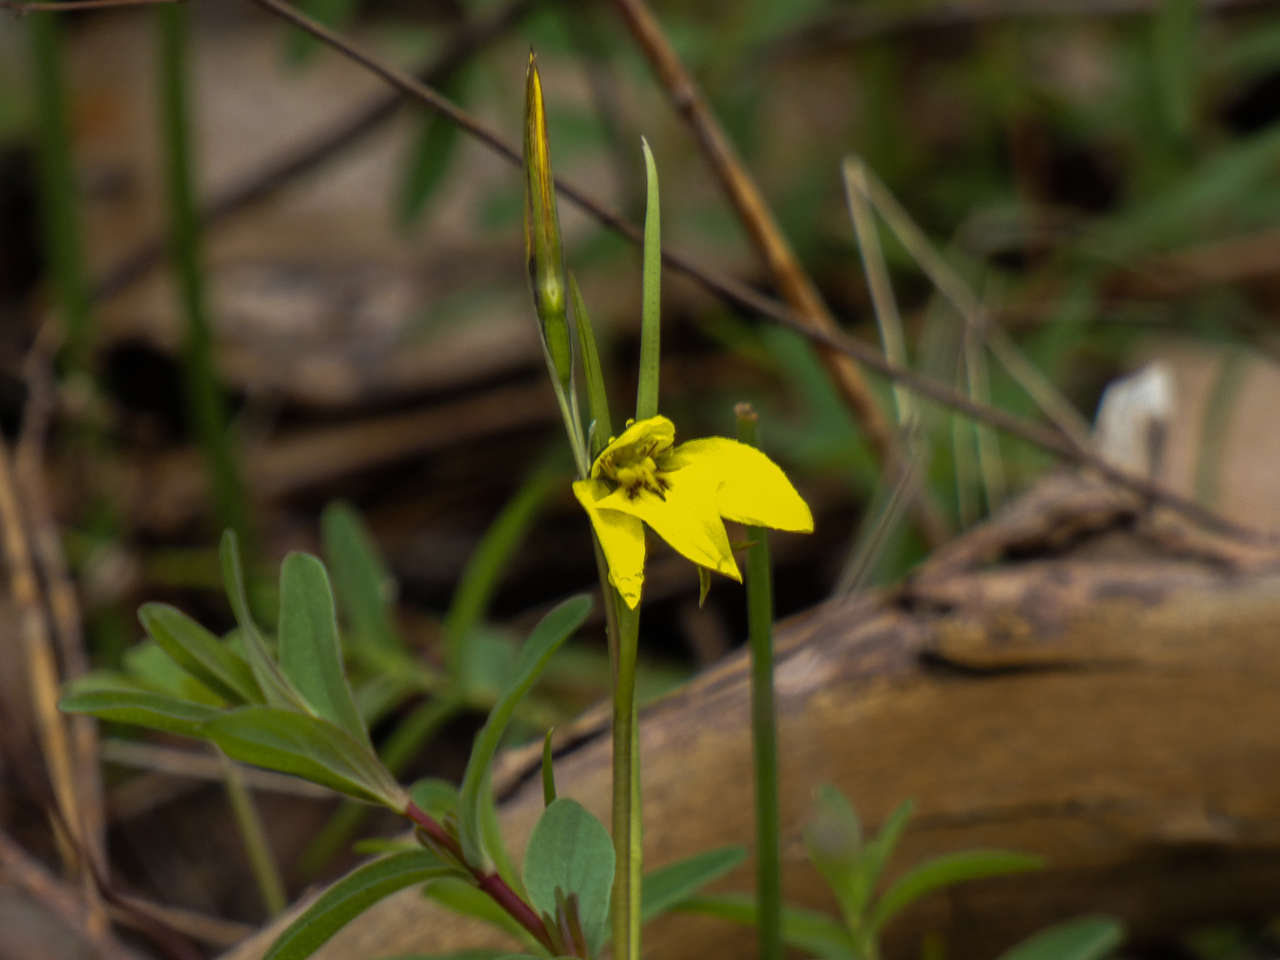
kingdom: Plantae
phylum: Tracheophyta
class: Liliopsida
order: Asparagales
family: Orchidaceae
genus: Diuris
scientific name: Diuris chryseopsis
